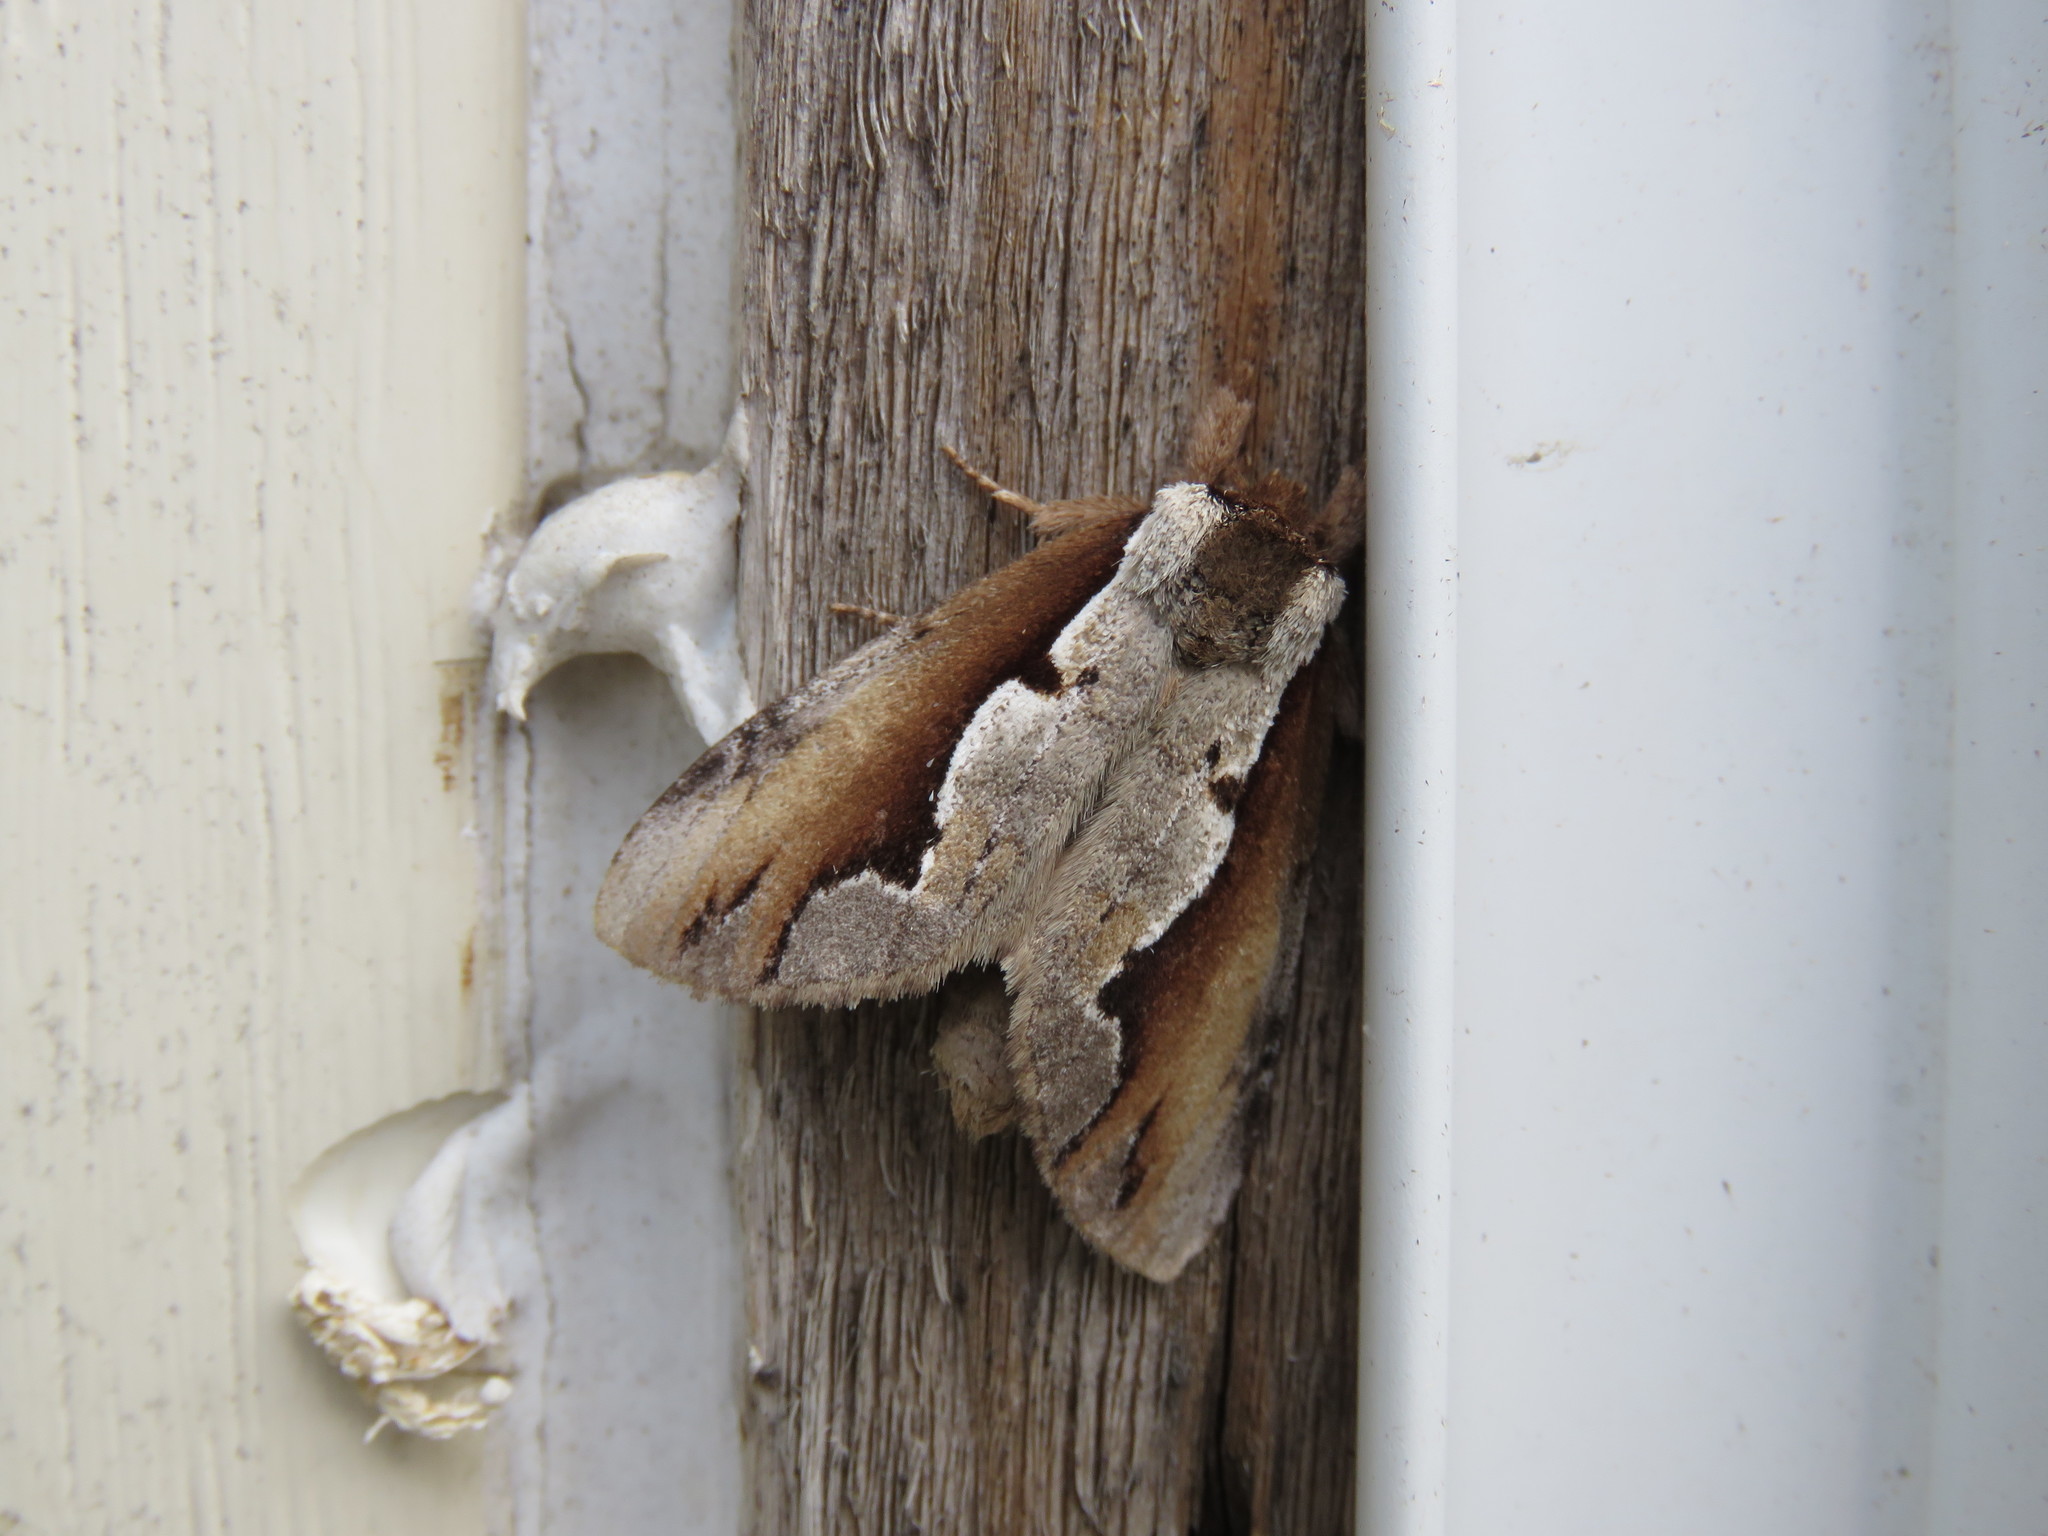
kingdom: Animalia
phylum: Arthropoda
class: Insecta
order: Lepidoptera
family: Notodontidae
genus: Nerice
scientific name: Nerice bidentata
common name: Double-toothed prominent
